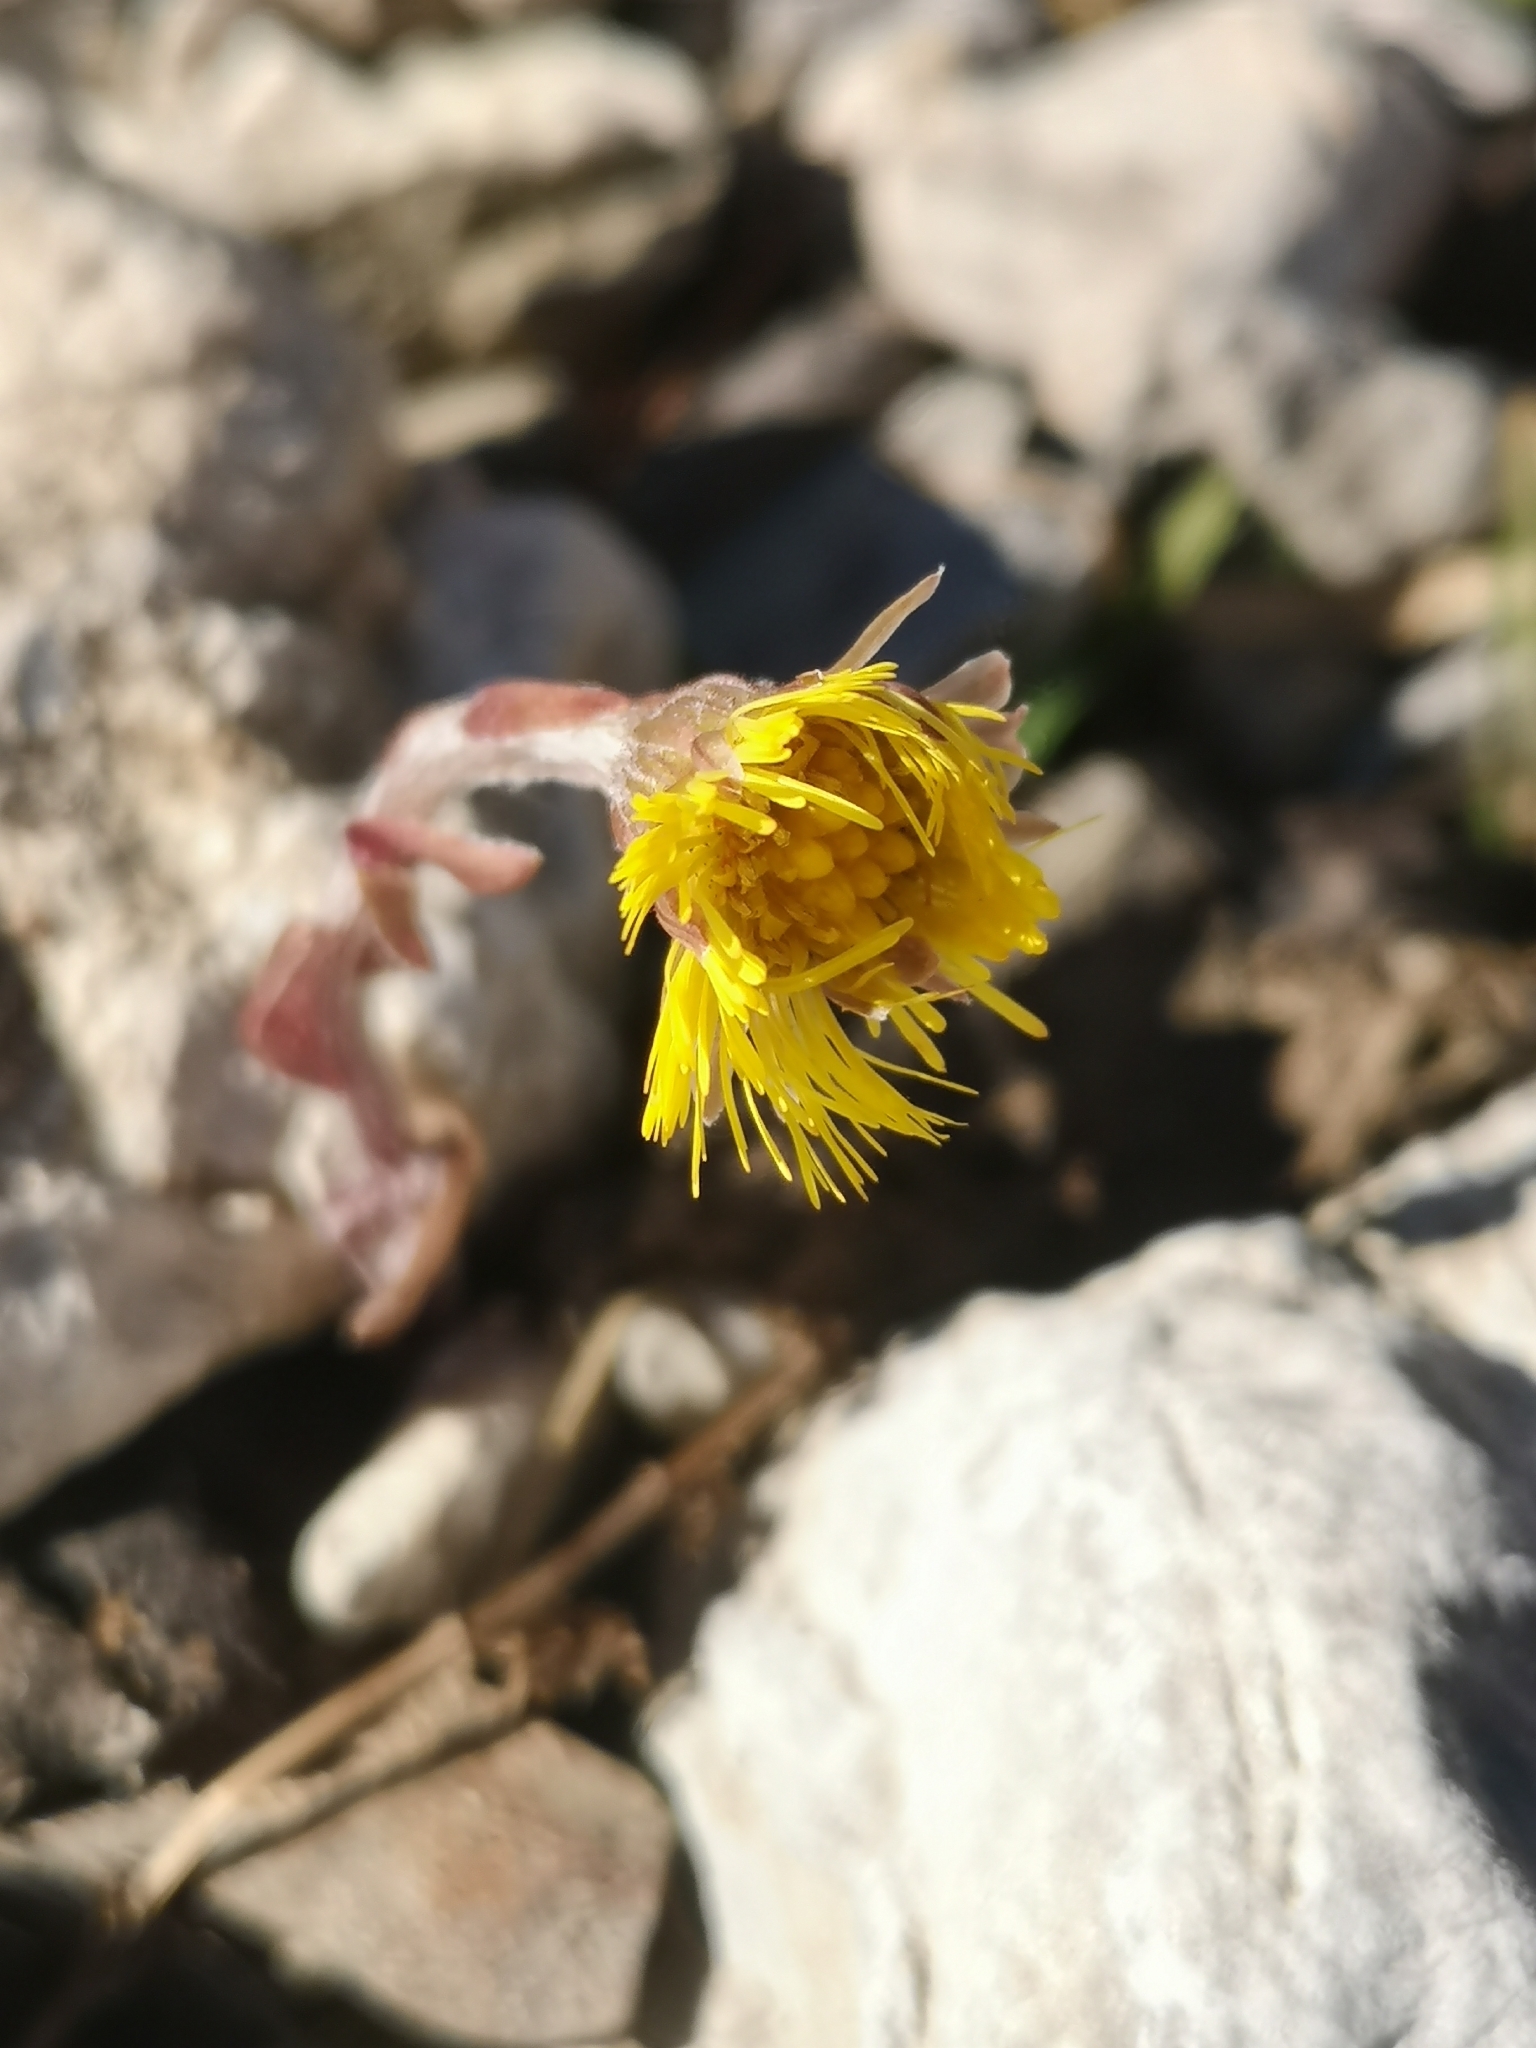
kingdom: Plantae
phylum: Tracheophyta
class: Magnoliopsida
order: Asterales
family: Asteraceae
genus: Tussilago
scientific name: Tussilago farfara
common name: Coltsfoot
